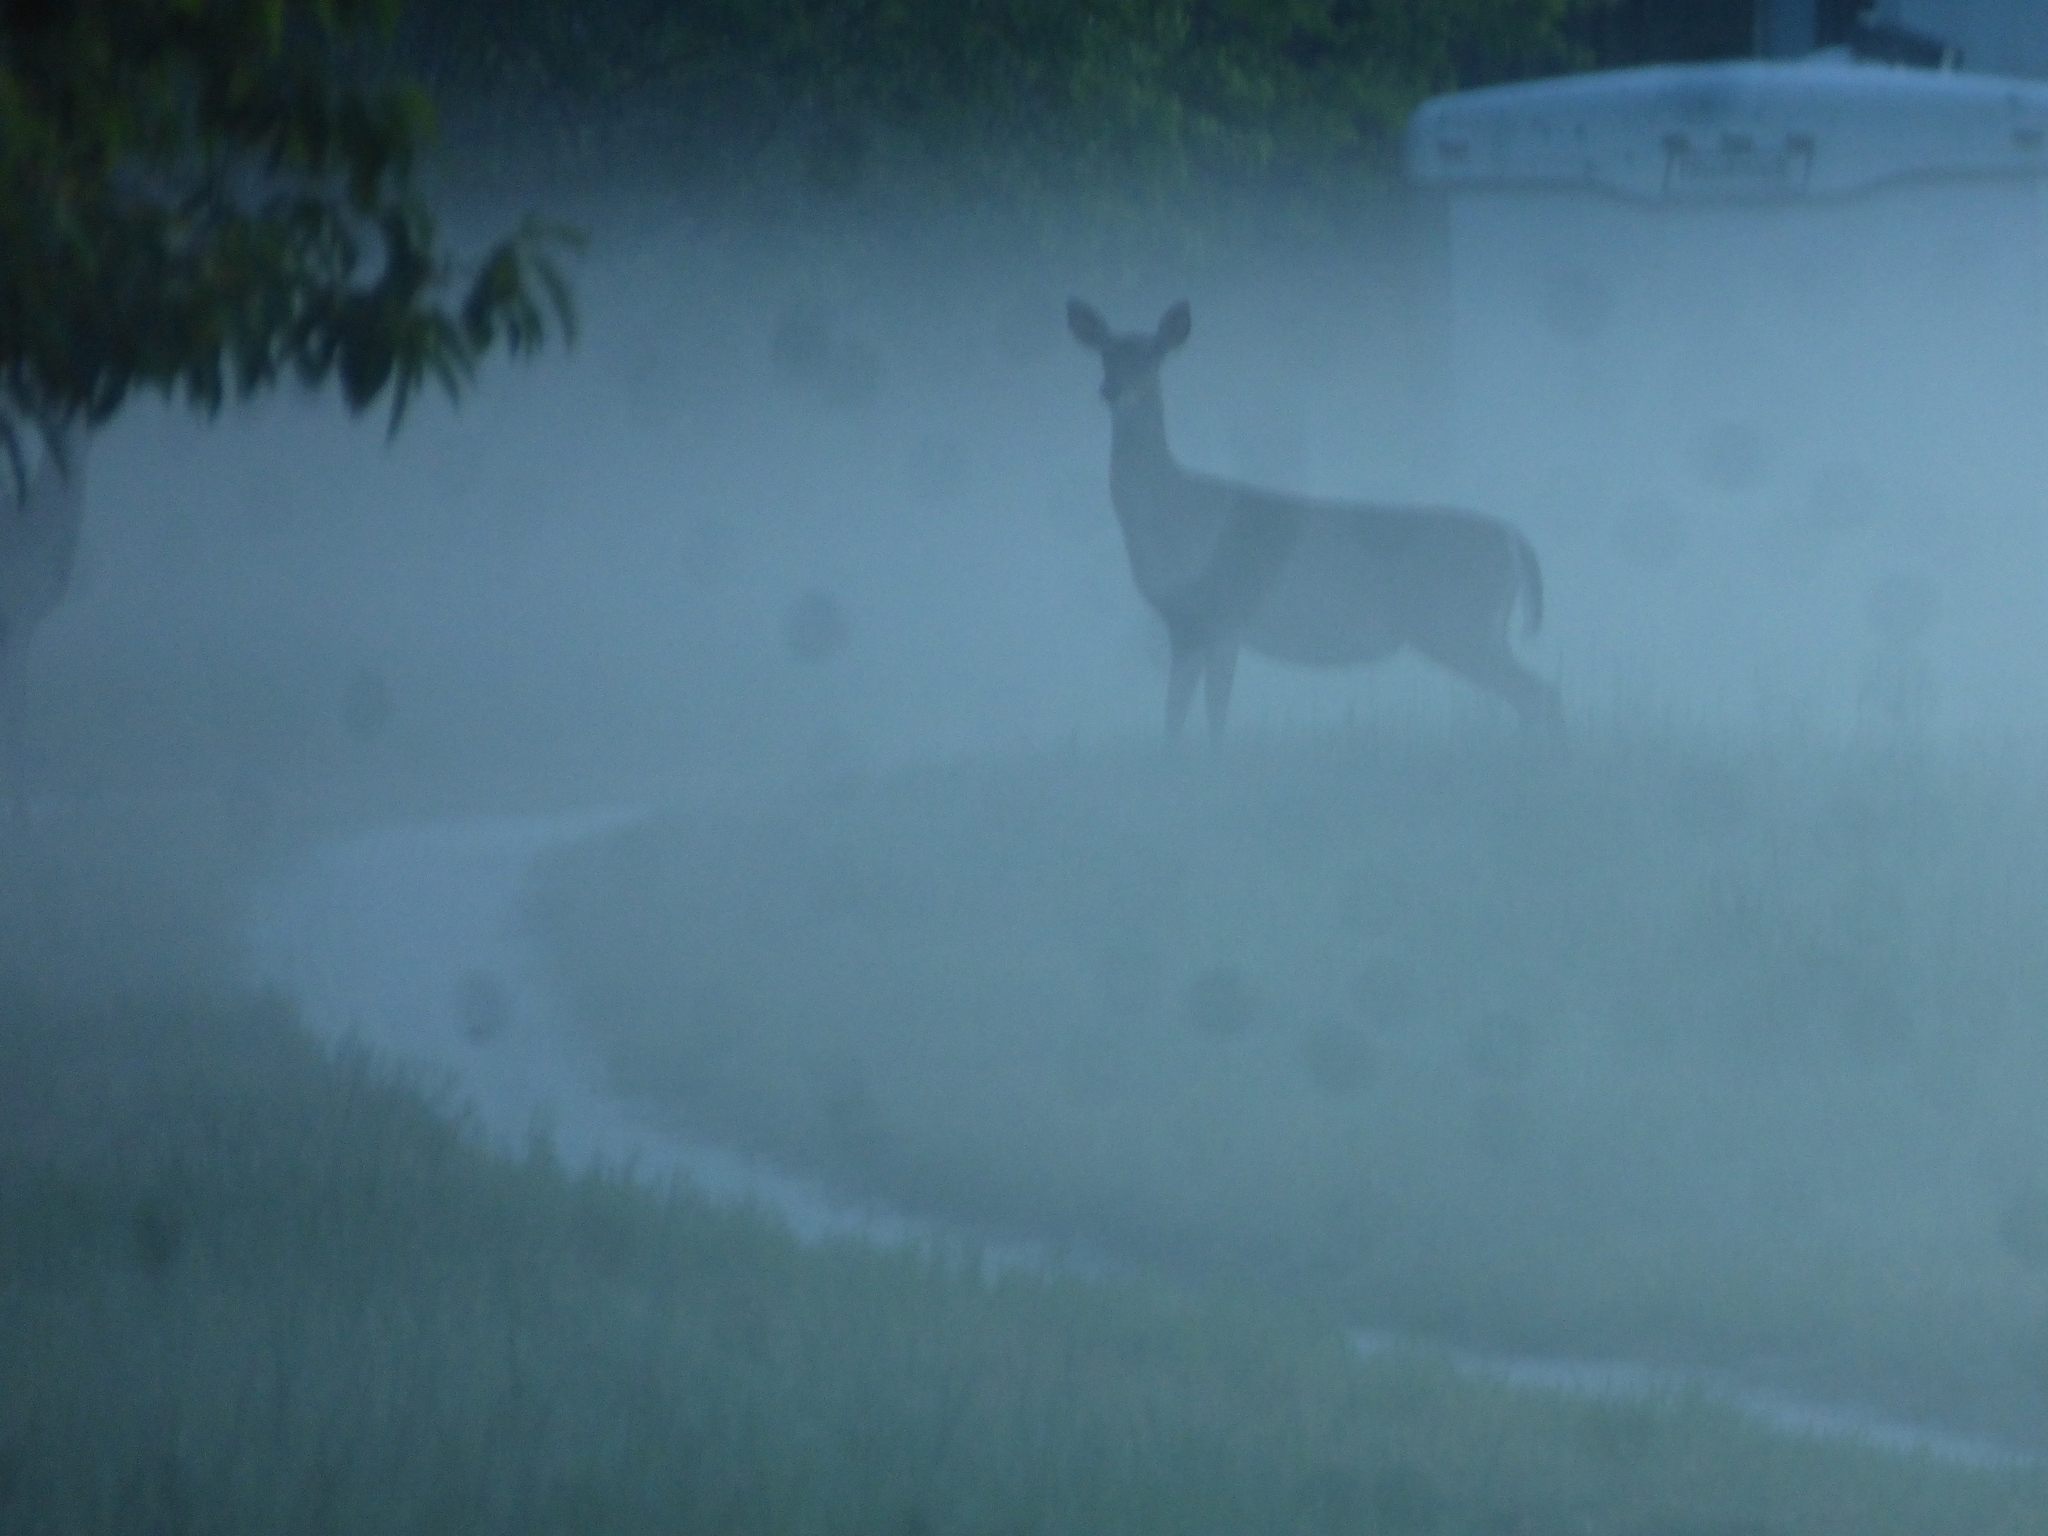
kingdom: Animalia
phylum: Chordata
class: Mammalia
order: Artiodactyla
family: Cervidae
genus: Odocoileus
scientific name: Odocoileus virginianus
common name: White-tailed deer
